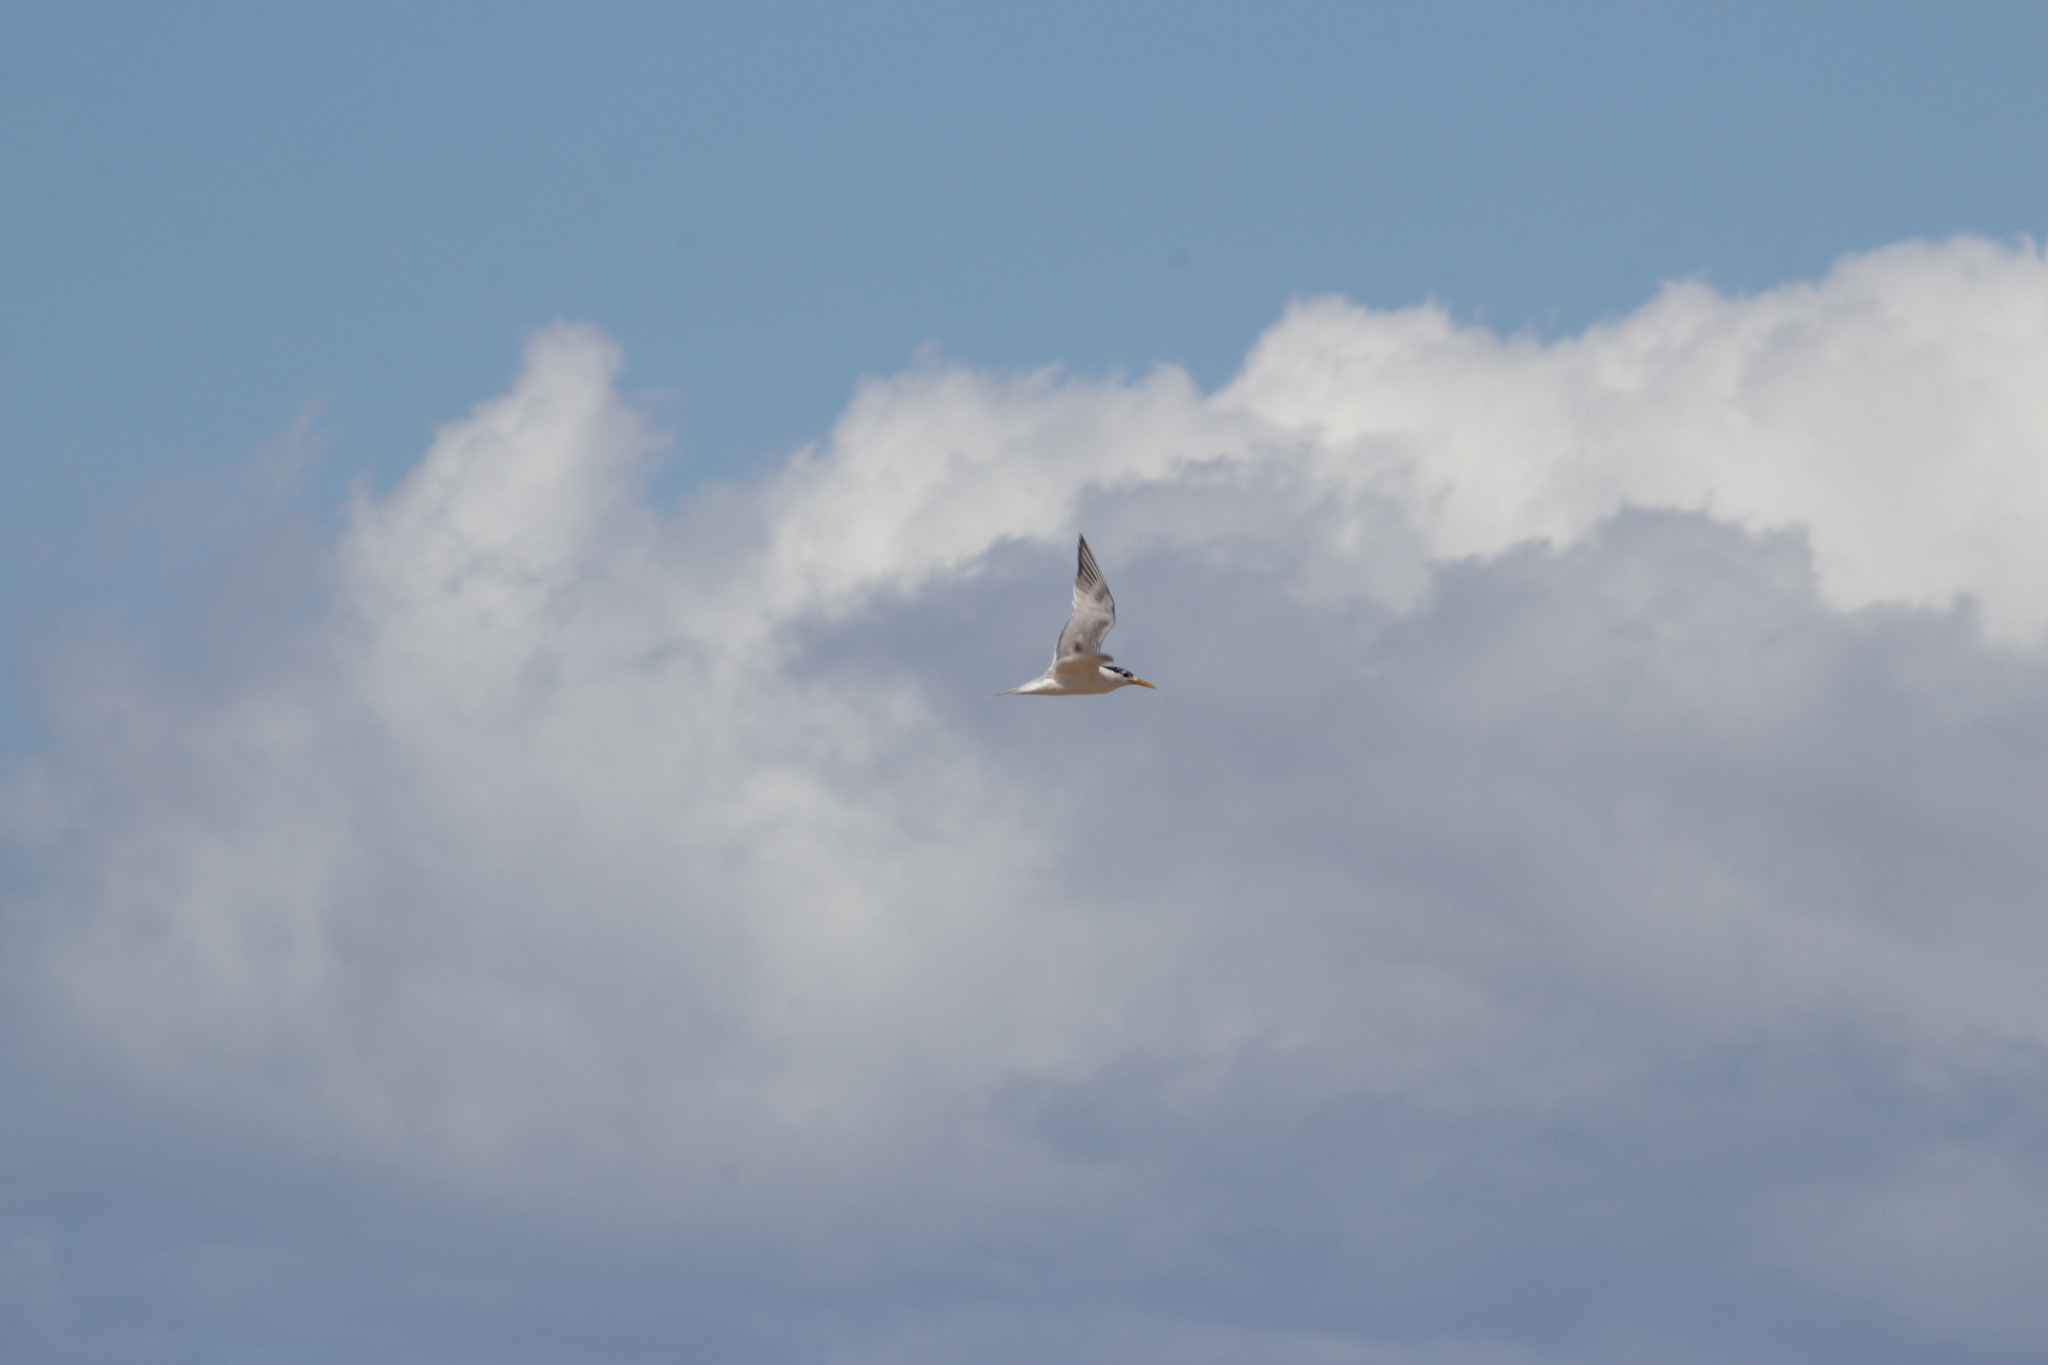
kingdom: Animalia
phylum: Chordata
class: Aves
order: Charadriiformes
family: Laridae
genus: Thalasseus
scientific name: Thalasseus bergii
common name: Greater crested tern
